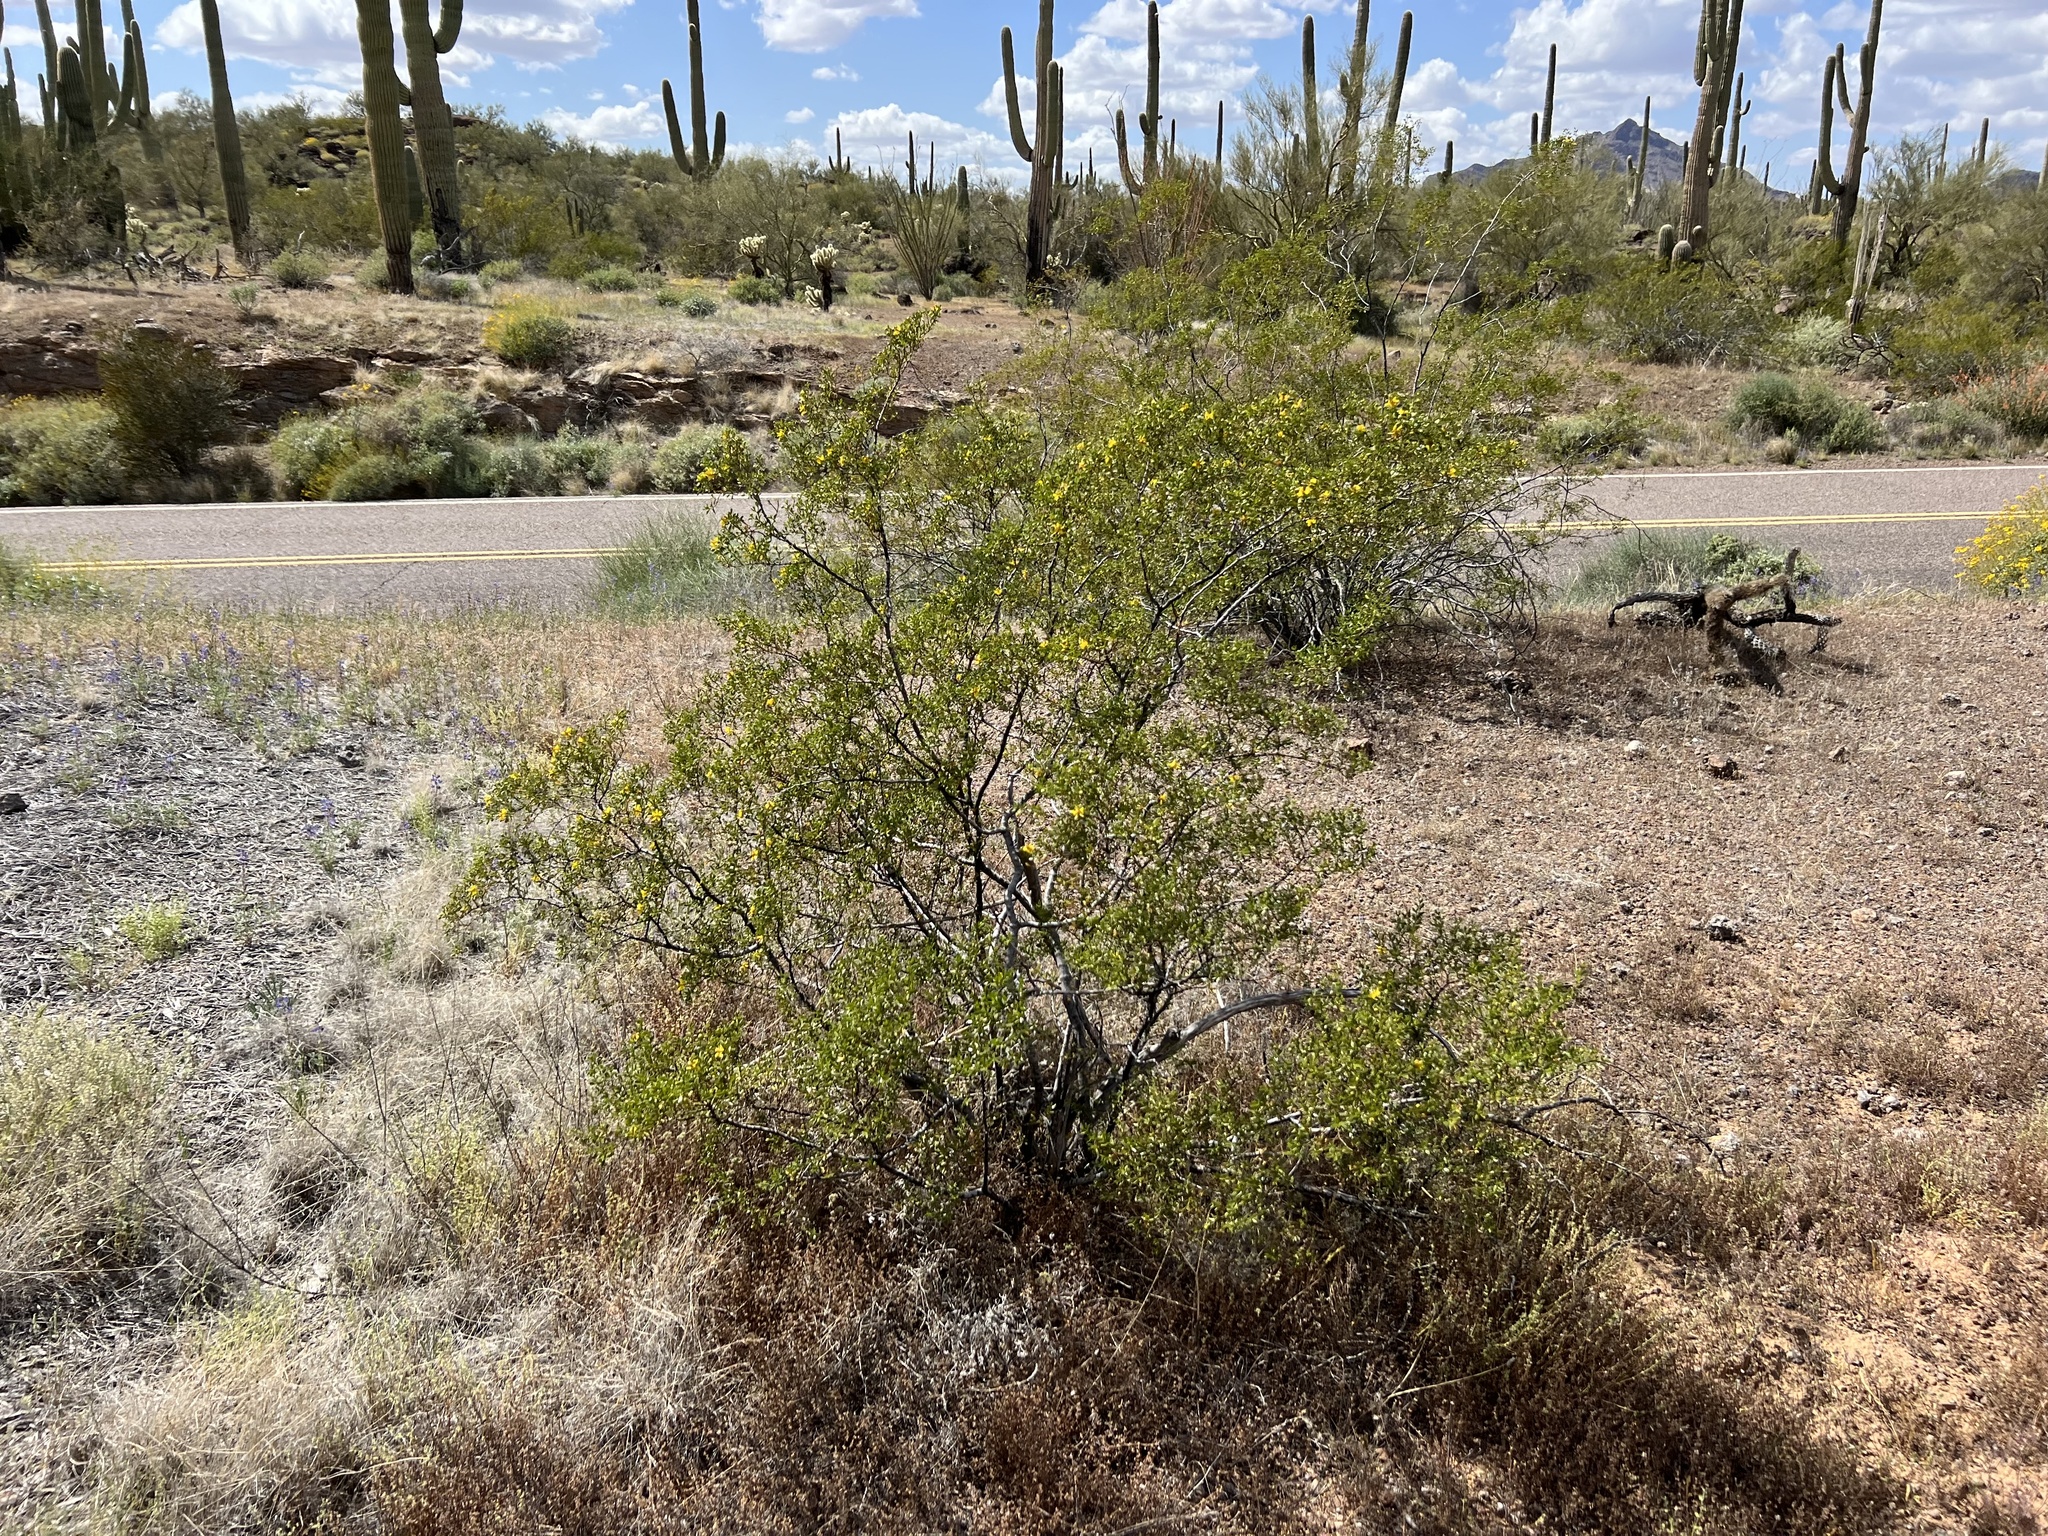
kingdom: Plantae
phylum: Tracheophyta
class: Magnoliopsida
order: Zygophyllales
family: Zygophyllaceae
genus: Larrea
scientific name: Larrea tridentata
